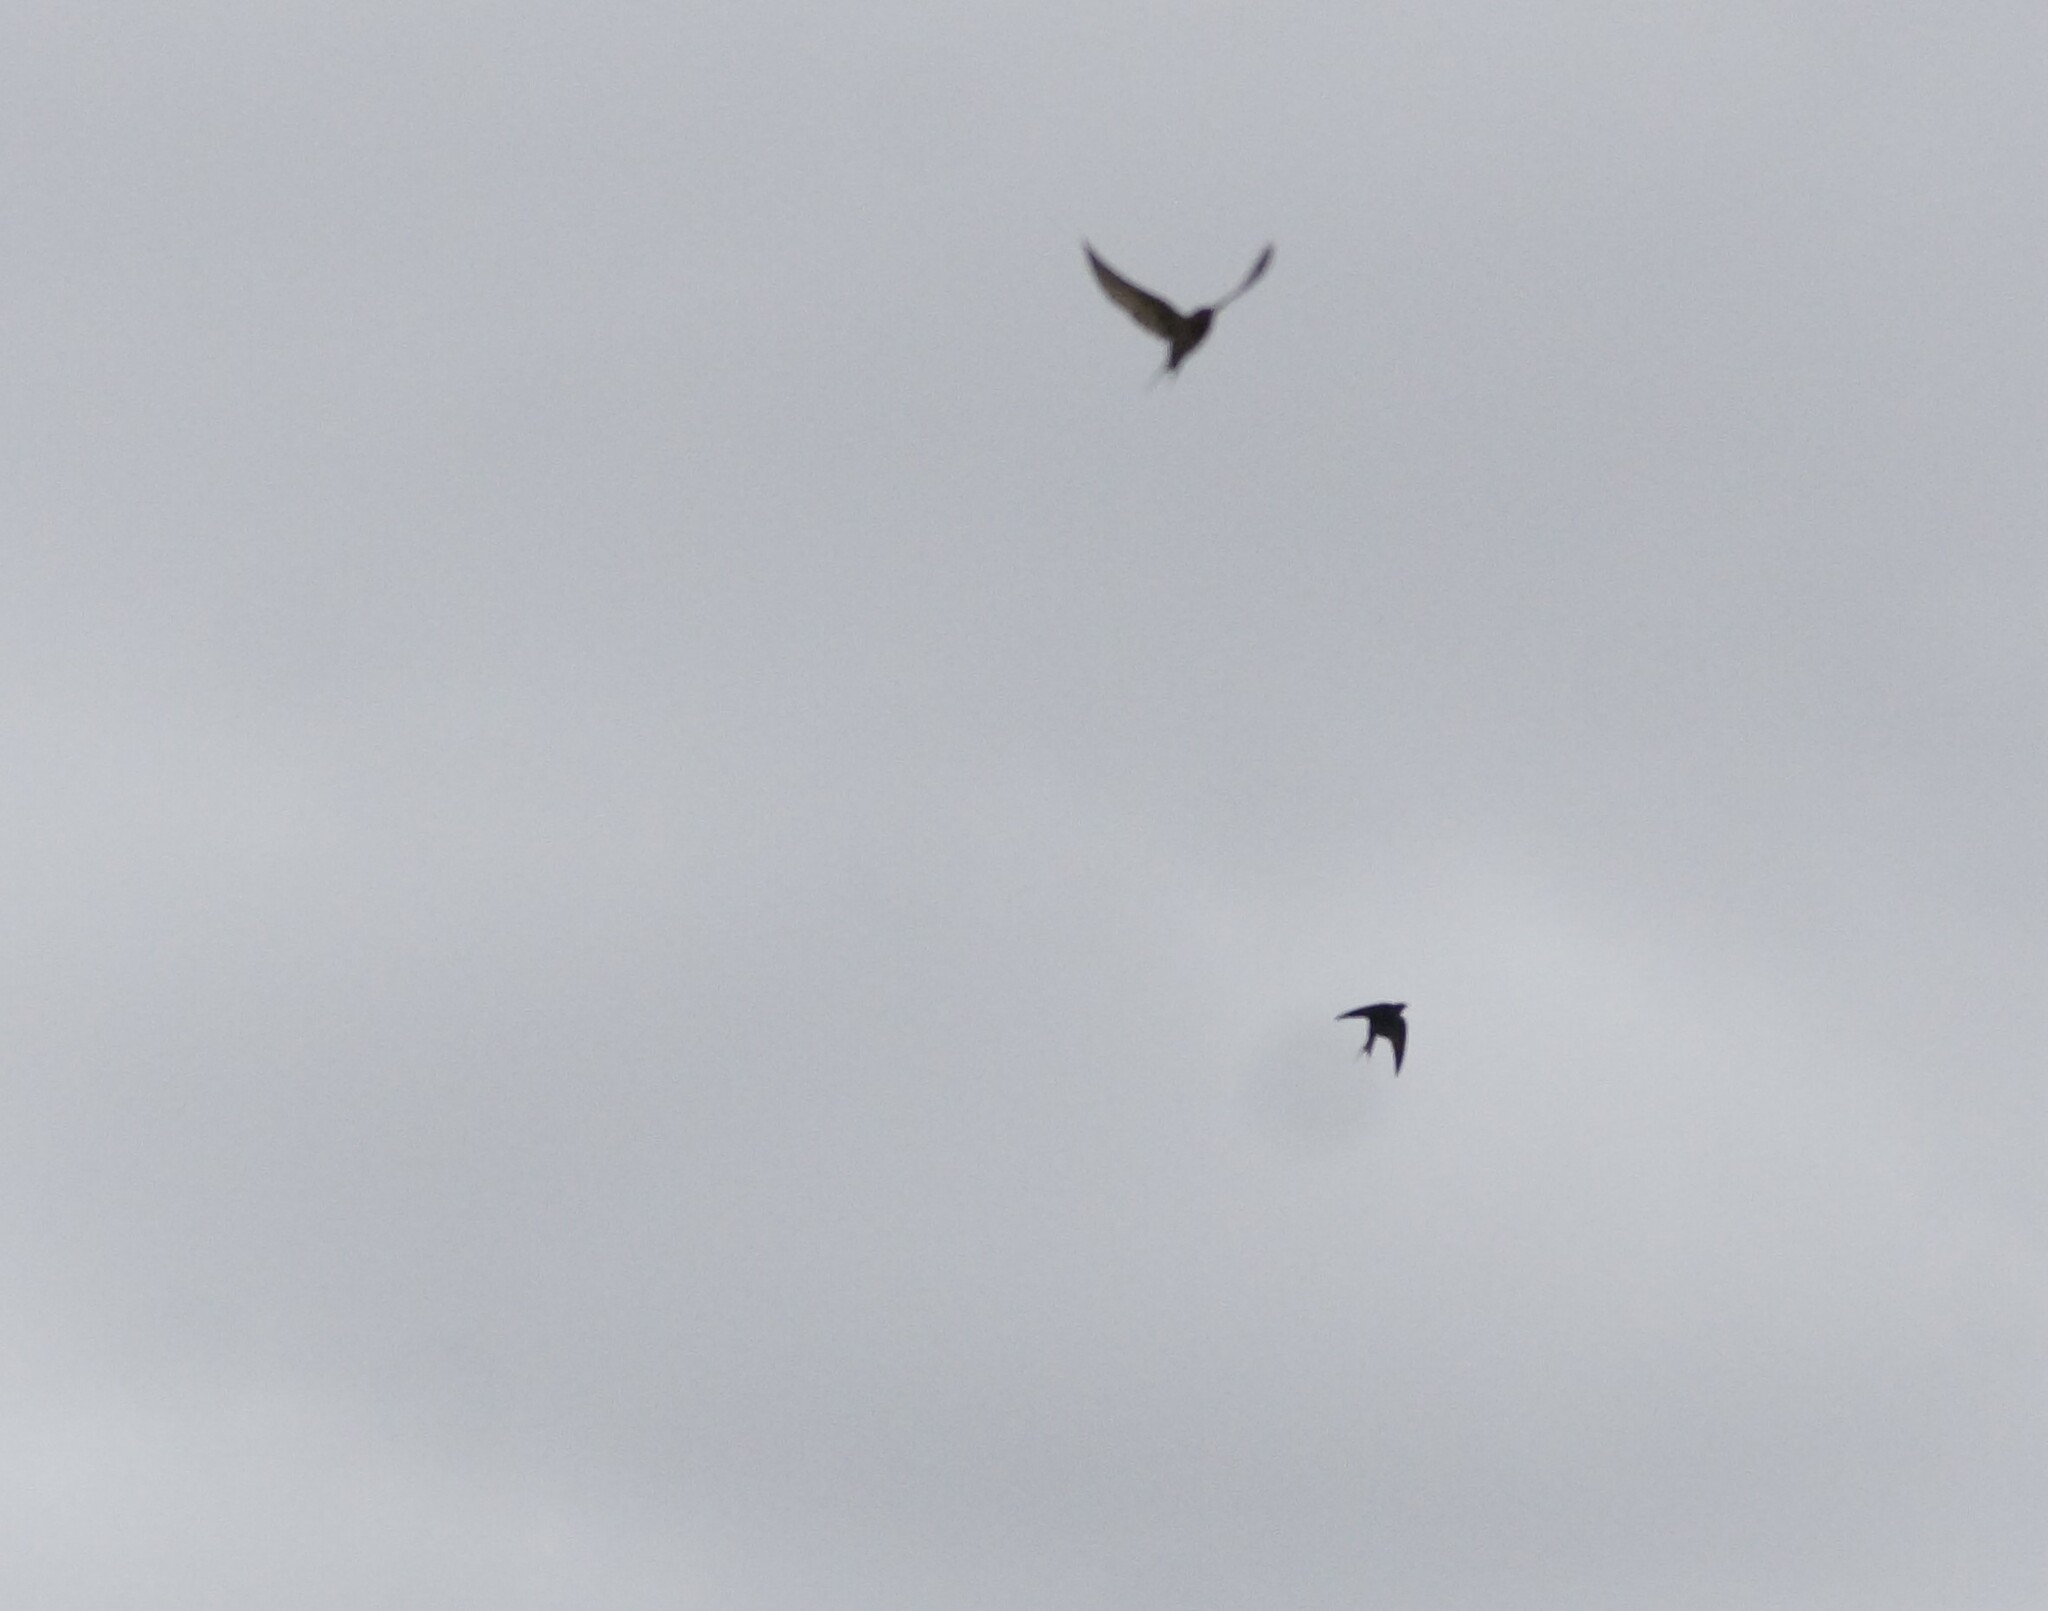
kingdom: Animalia
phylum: Chordata
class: Aves
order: Passeriformes
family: Hirundinidae
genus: Hirundo
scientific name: Hirundo neoxena
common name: Welcome swallow
